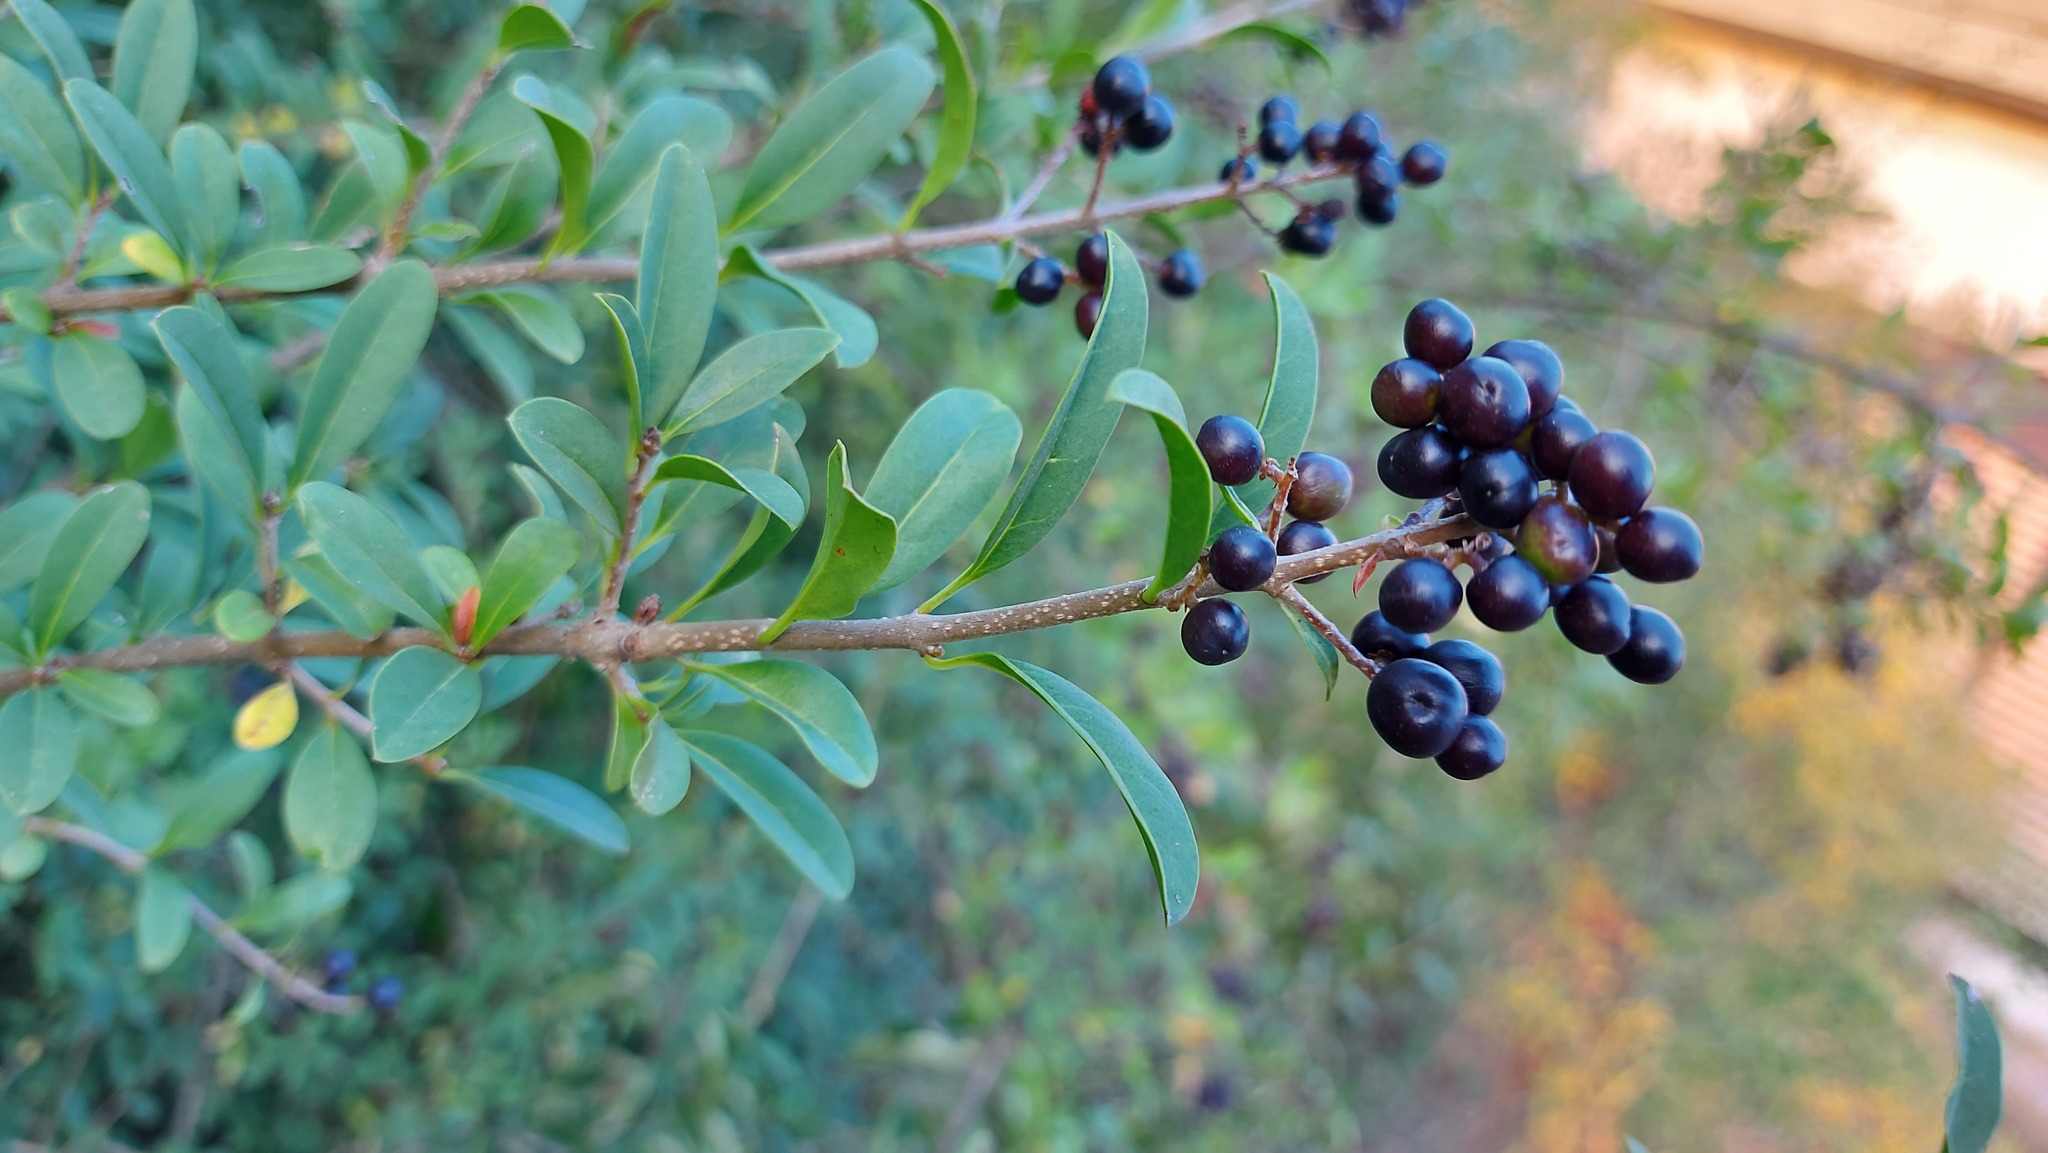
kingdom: Plantae
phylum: Tracheophyta
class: Magnoliopsida
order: Lamiales
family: Oleaceae
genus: Ligustrum
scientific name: Ligustrum vulgare
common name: Wild privet
